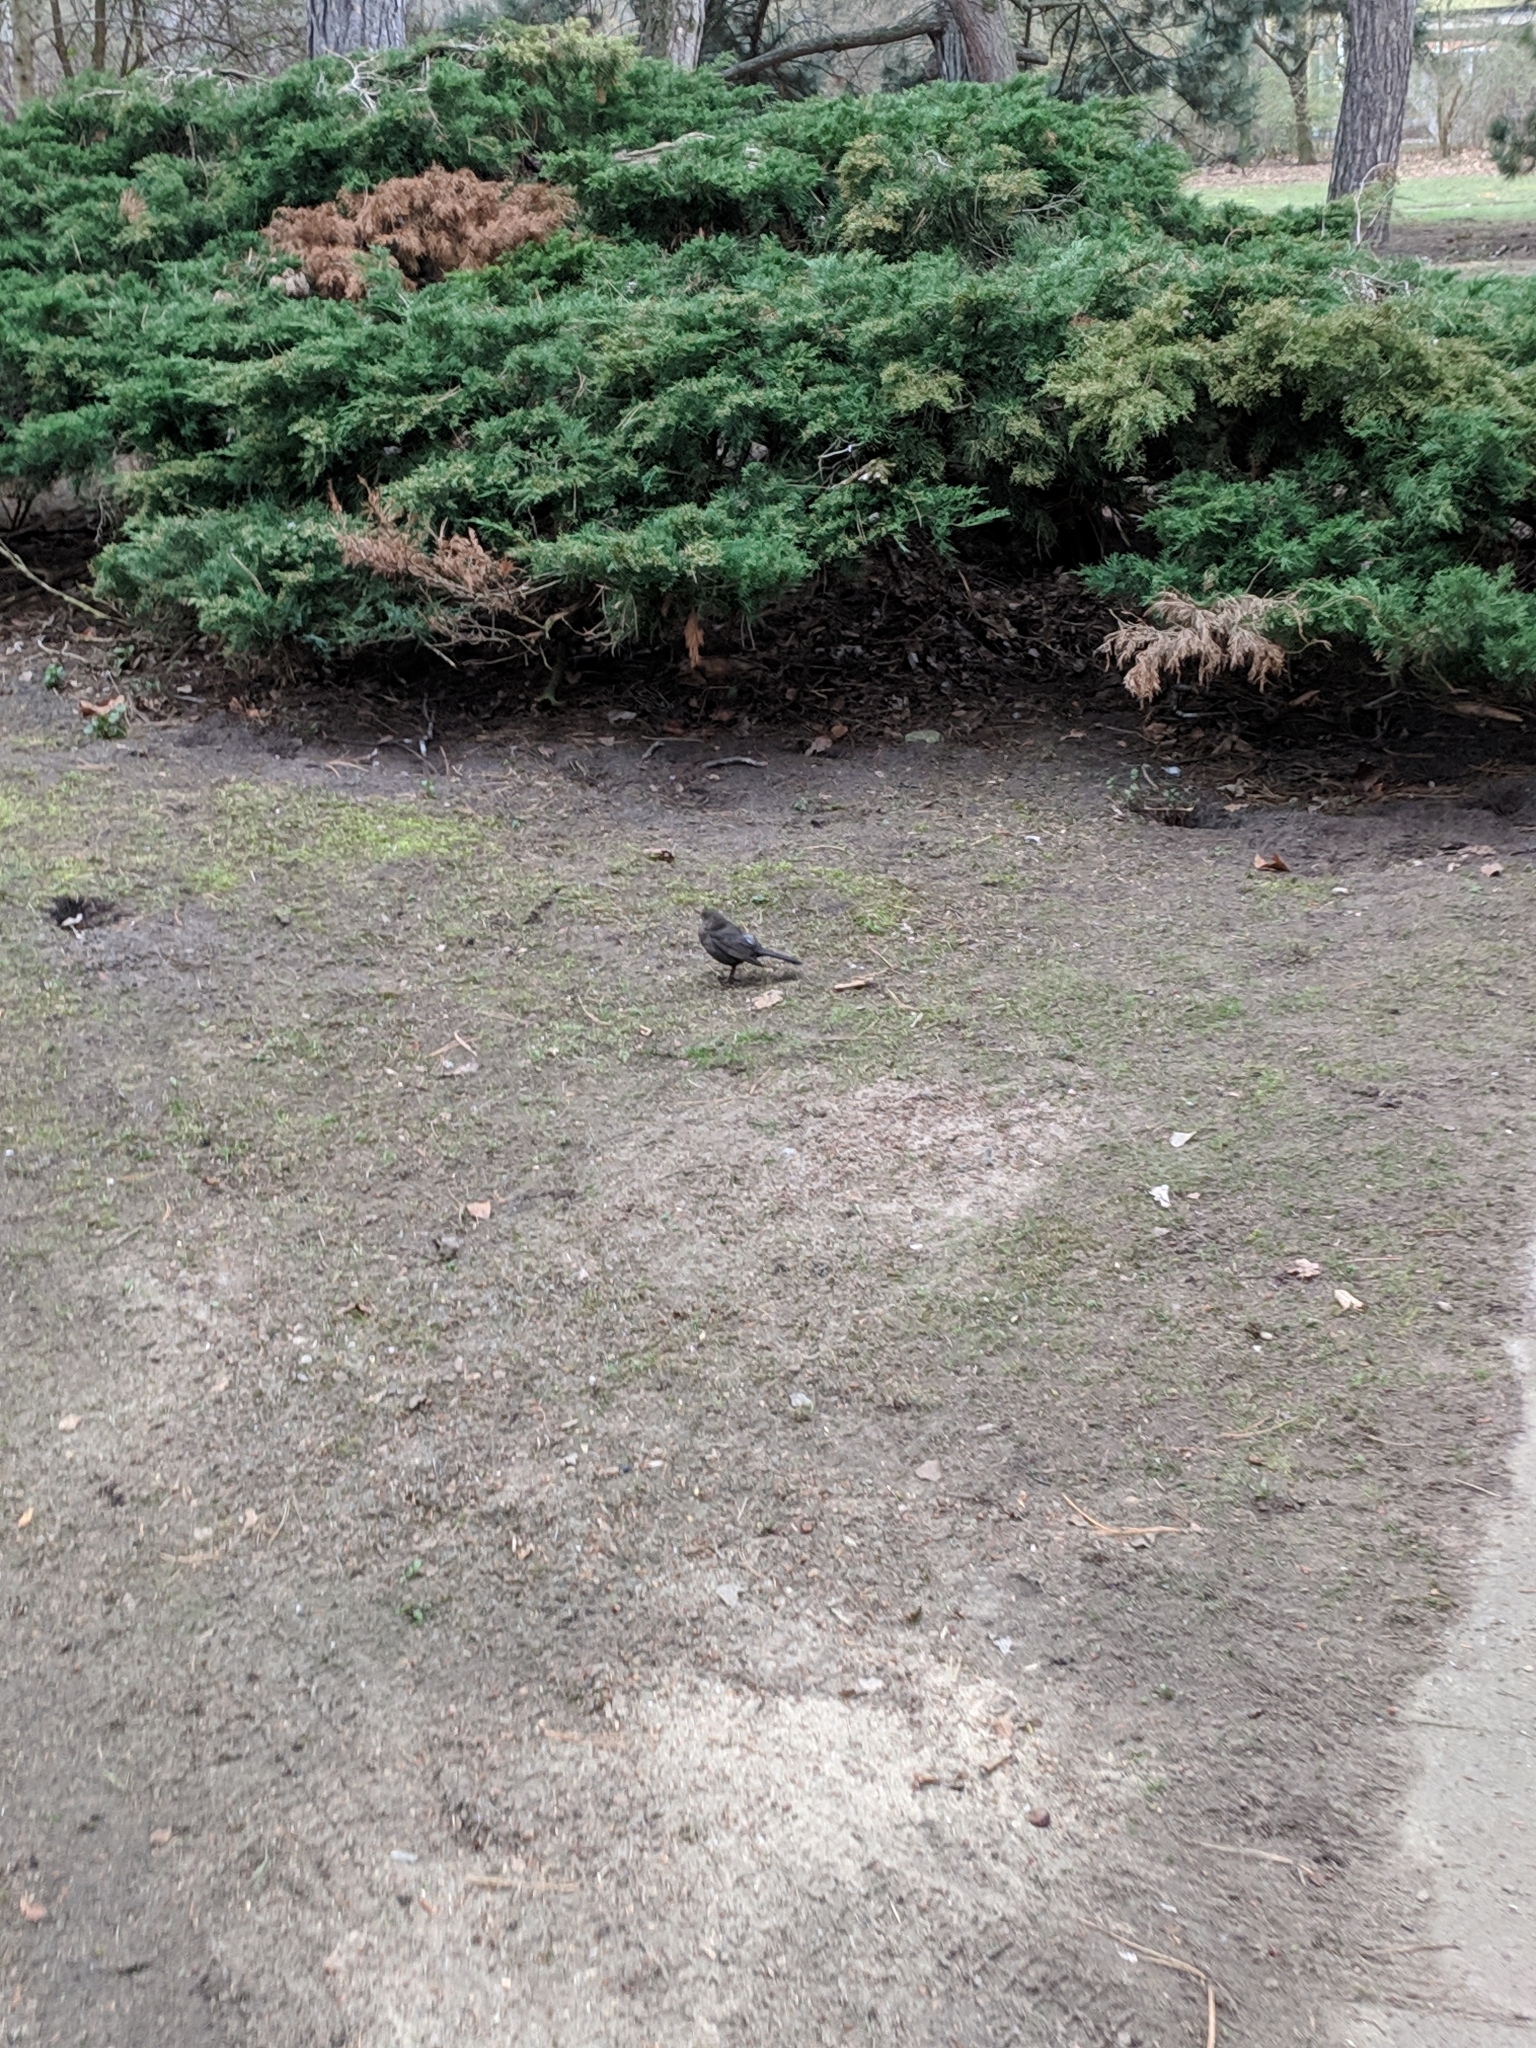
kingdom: Animalia
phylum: Chordata
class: Aves
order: Passeriformes
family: Turdidae
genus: Turdus
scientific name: Turdus merula
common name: Common blackbird
